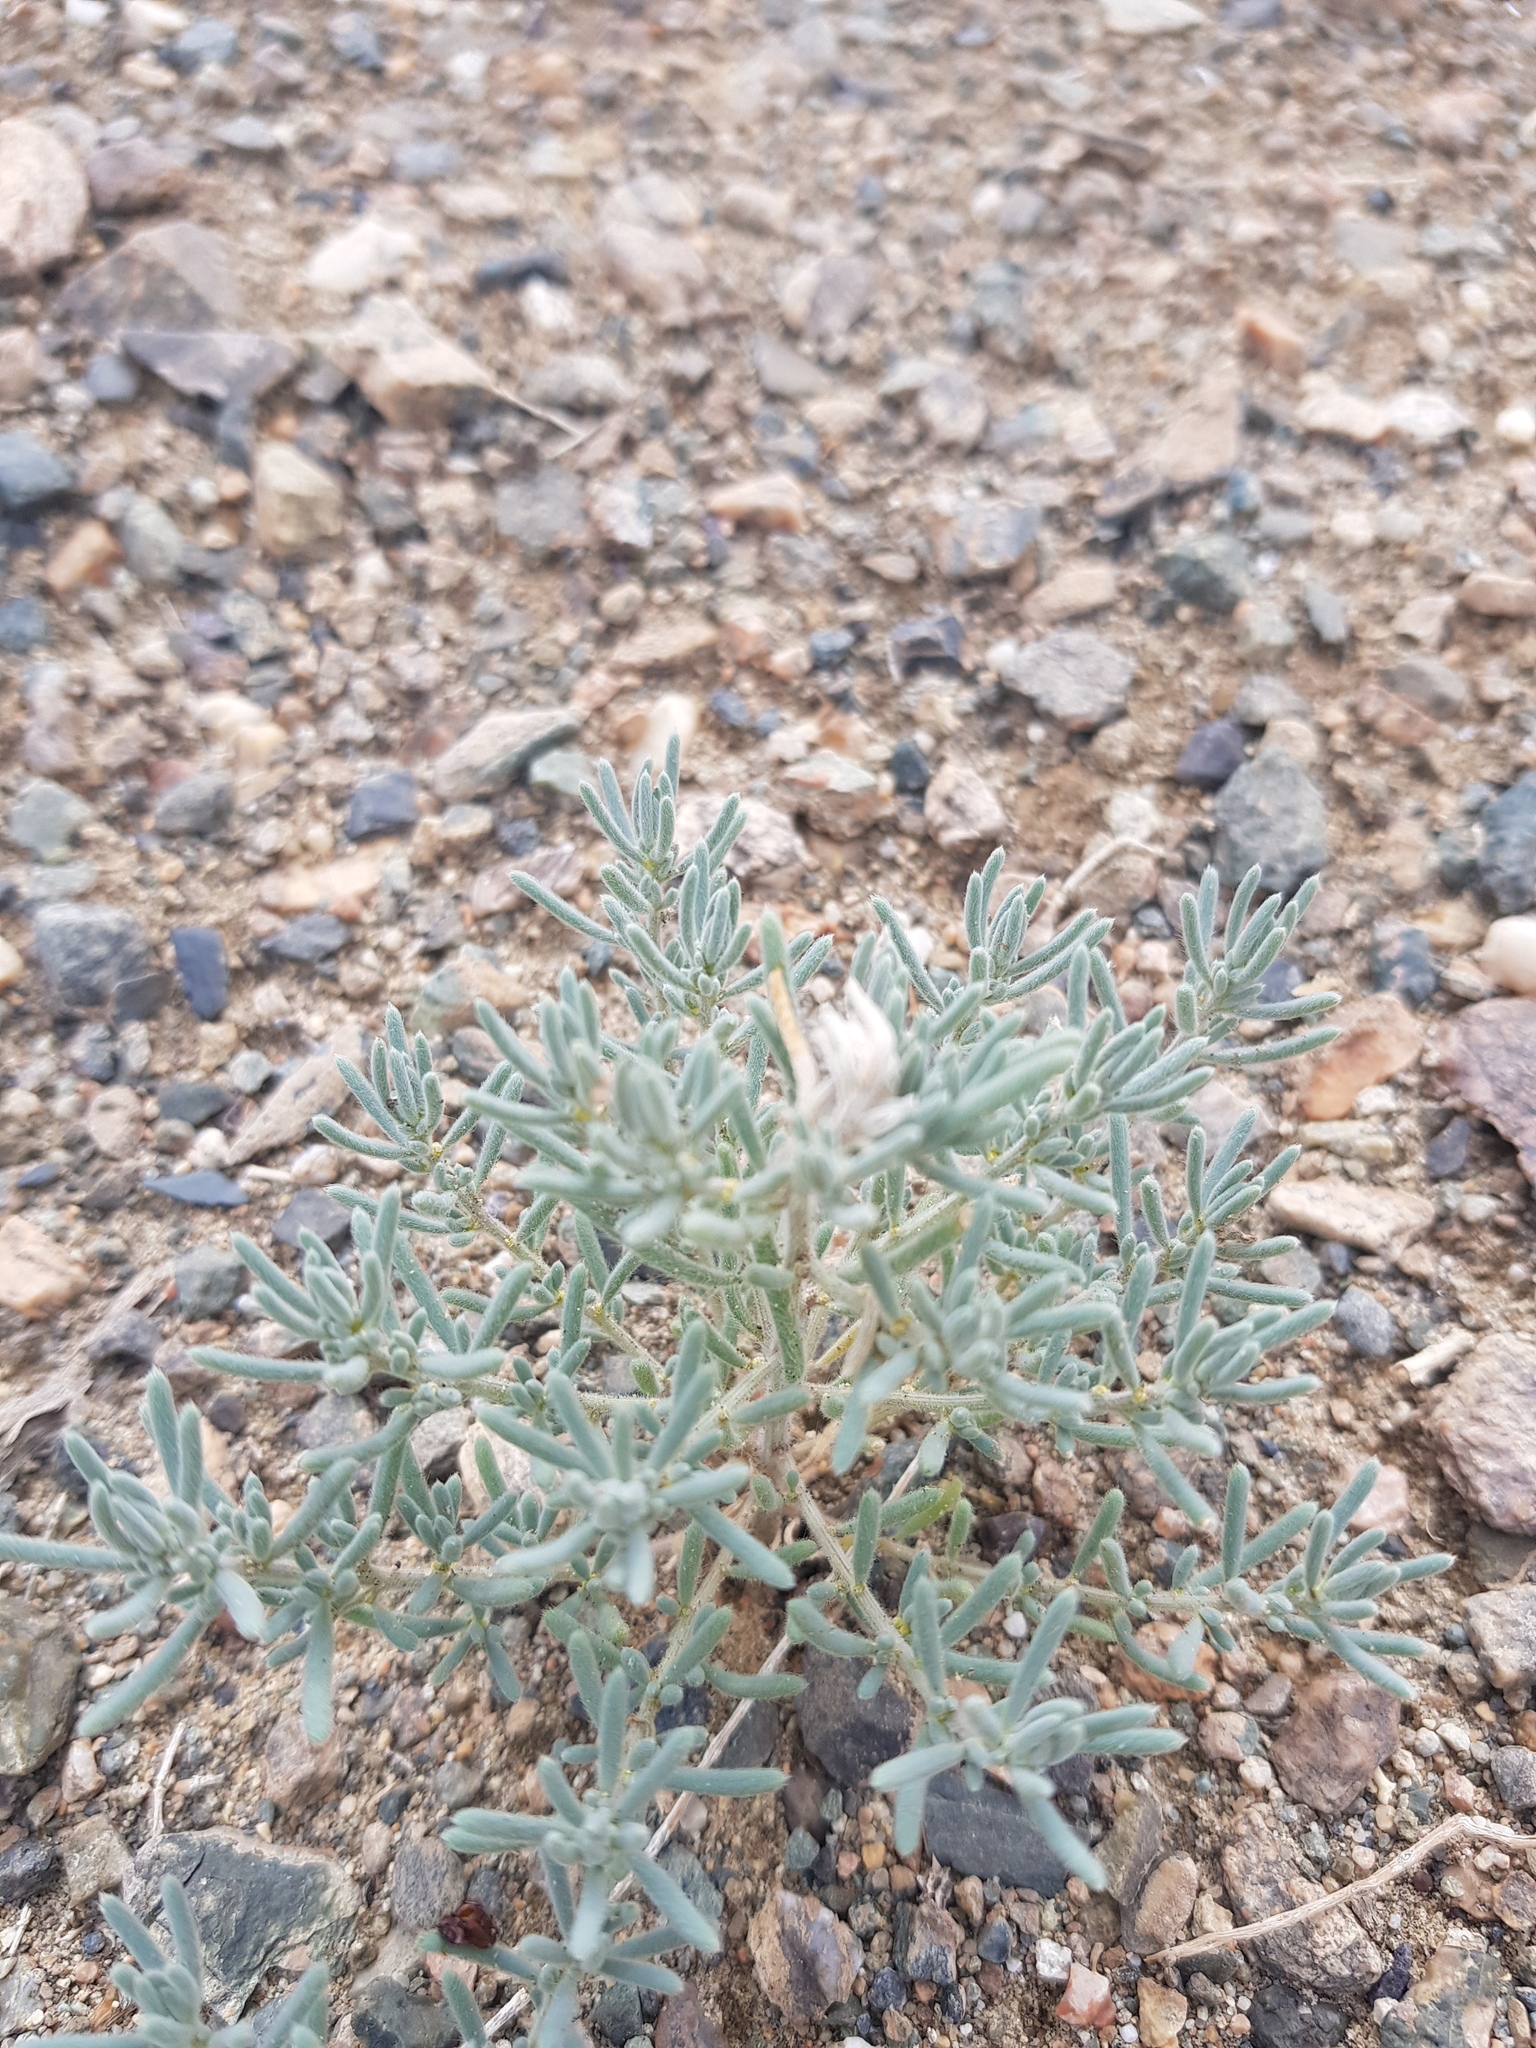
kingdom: Plantae
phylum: Tracheophyta
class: Magnoliopsida
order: Caryophyllales
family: Amaranthaceae
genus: Grubovia
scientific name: Grubovia dasyphylla
